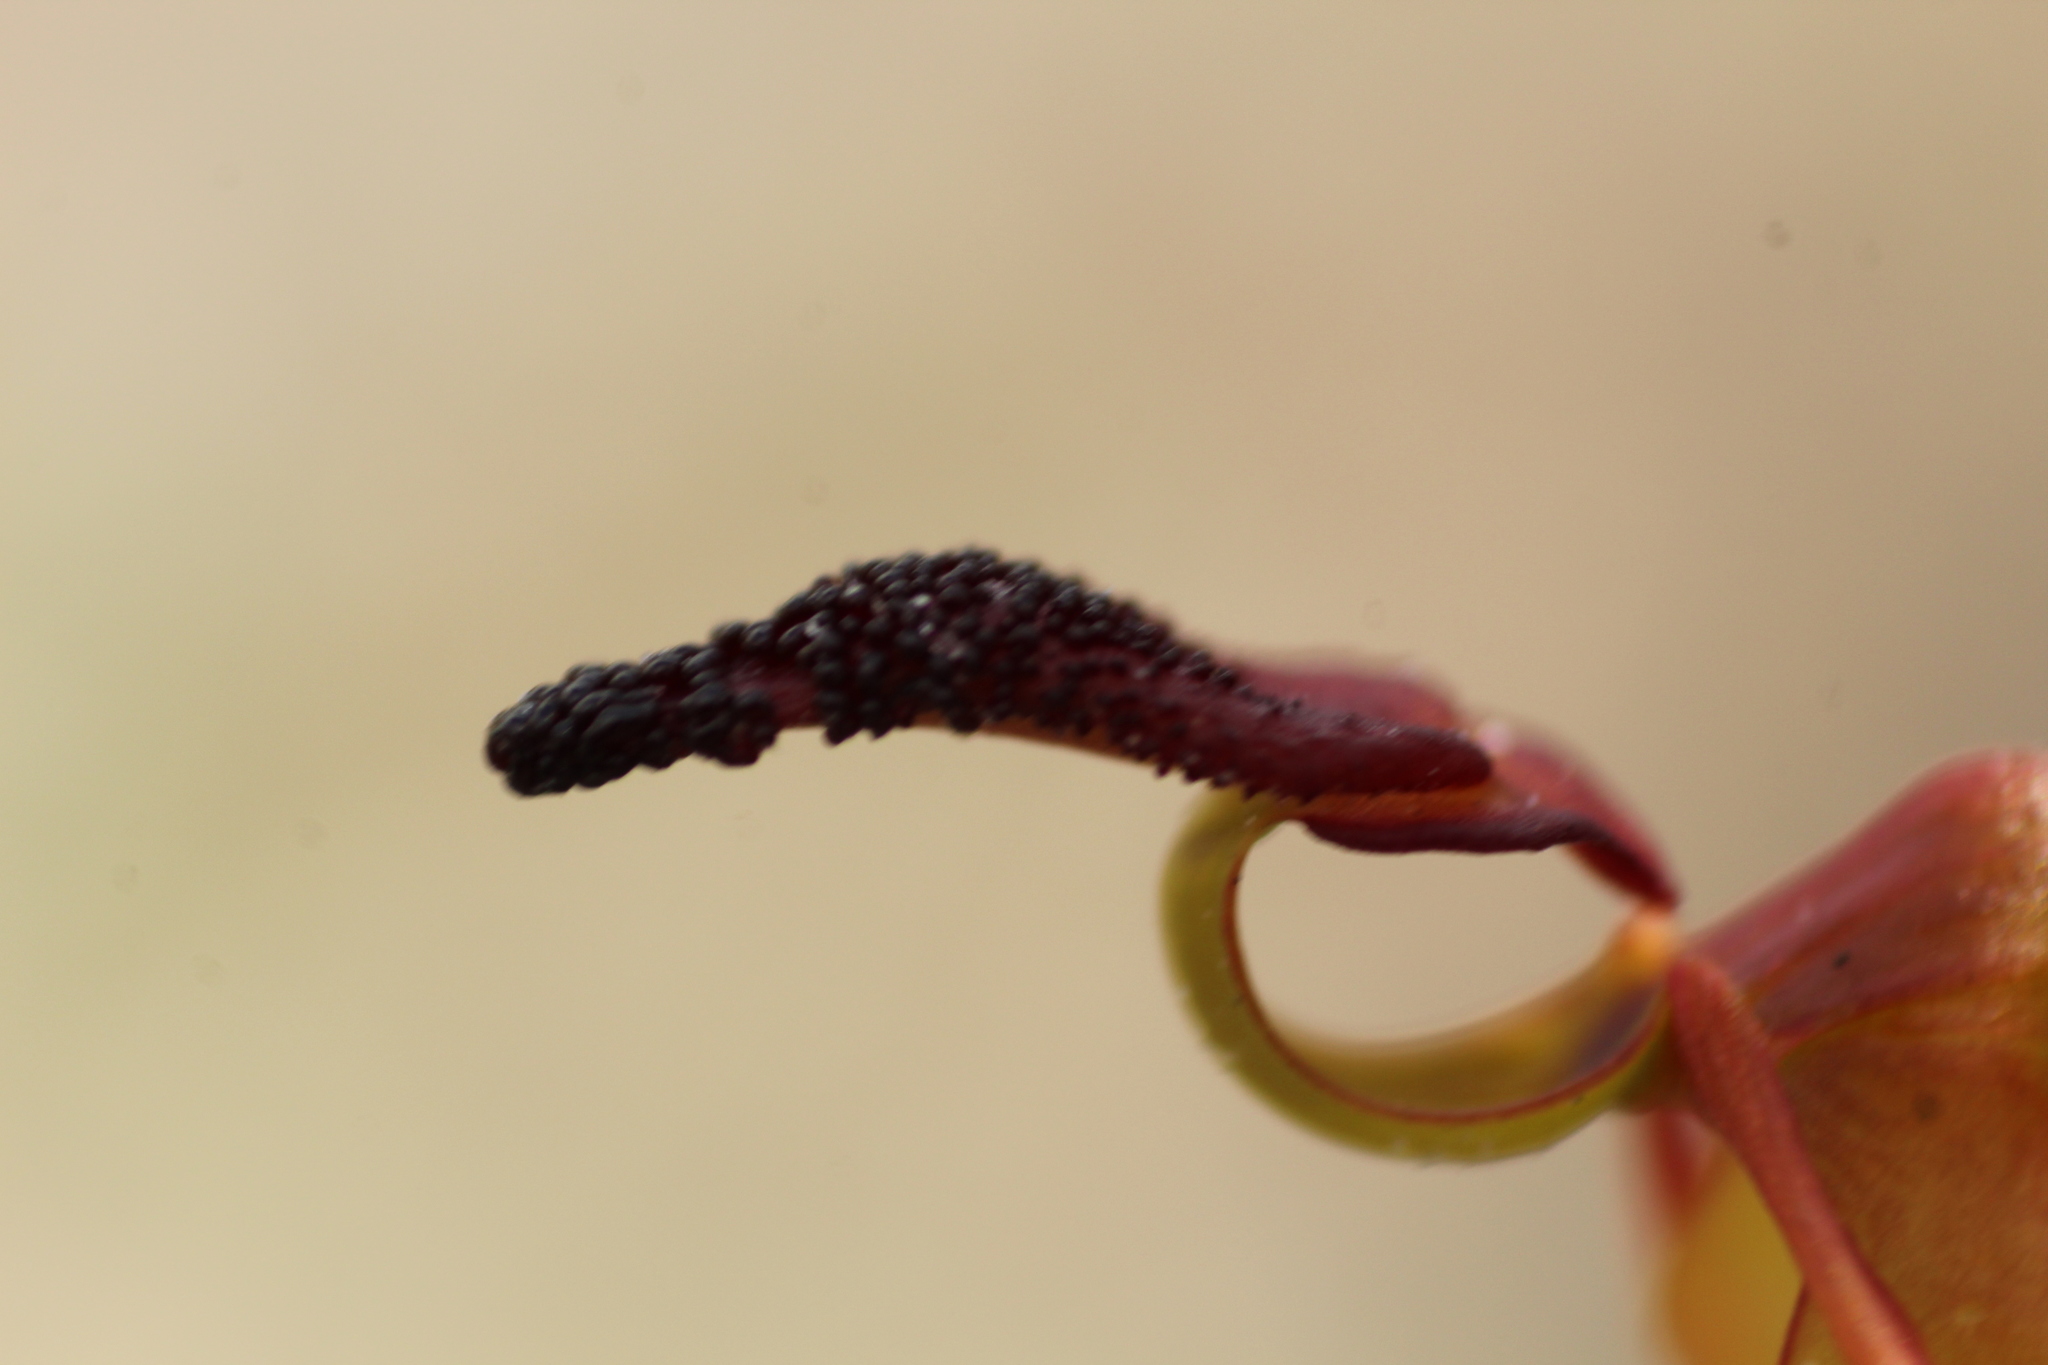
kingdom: Plantae
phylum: Tracheophyta
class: Liliopsida
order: Asparagales
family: Orchidaceae
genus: Caleana
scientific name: Caleana nigrita
